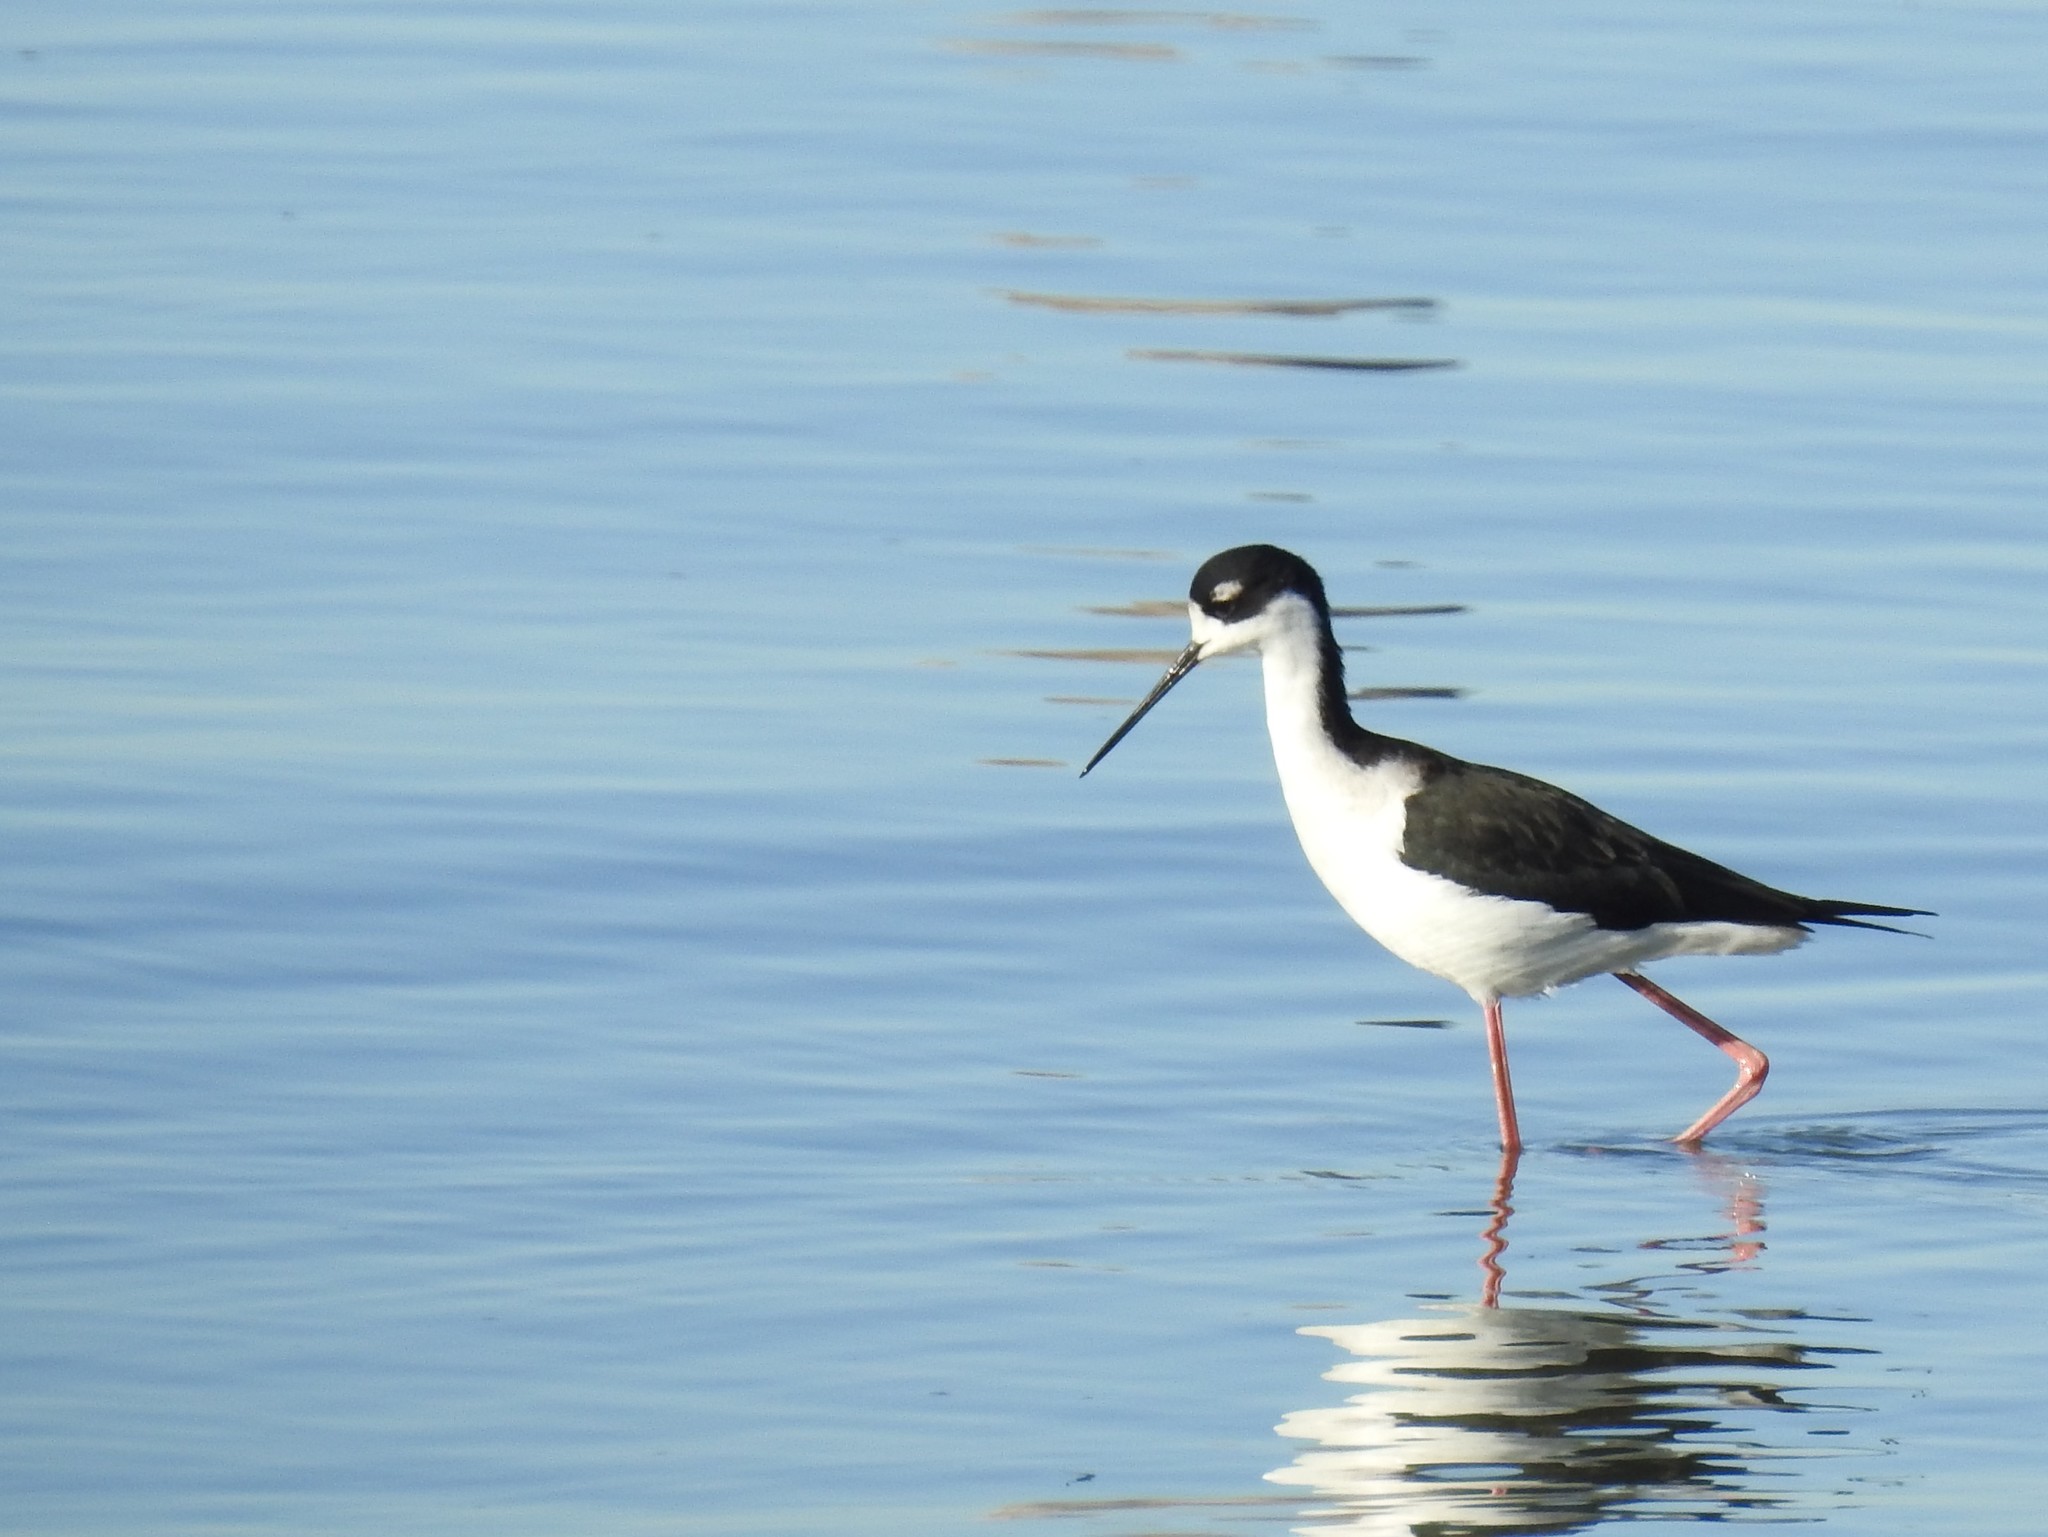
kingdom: Animalia
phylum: Chordata
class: Aves
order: Charadriiformes
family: Recurvirostridae
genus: Himantopus
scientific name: Himantopus mexicanus
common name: Black-necked stilt
